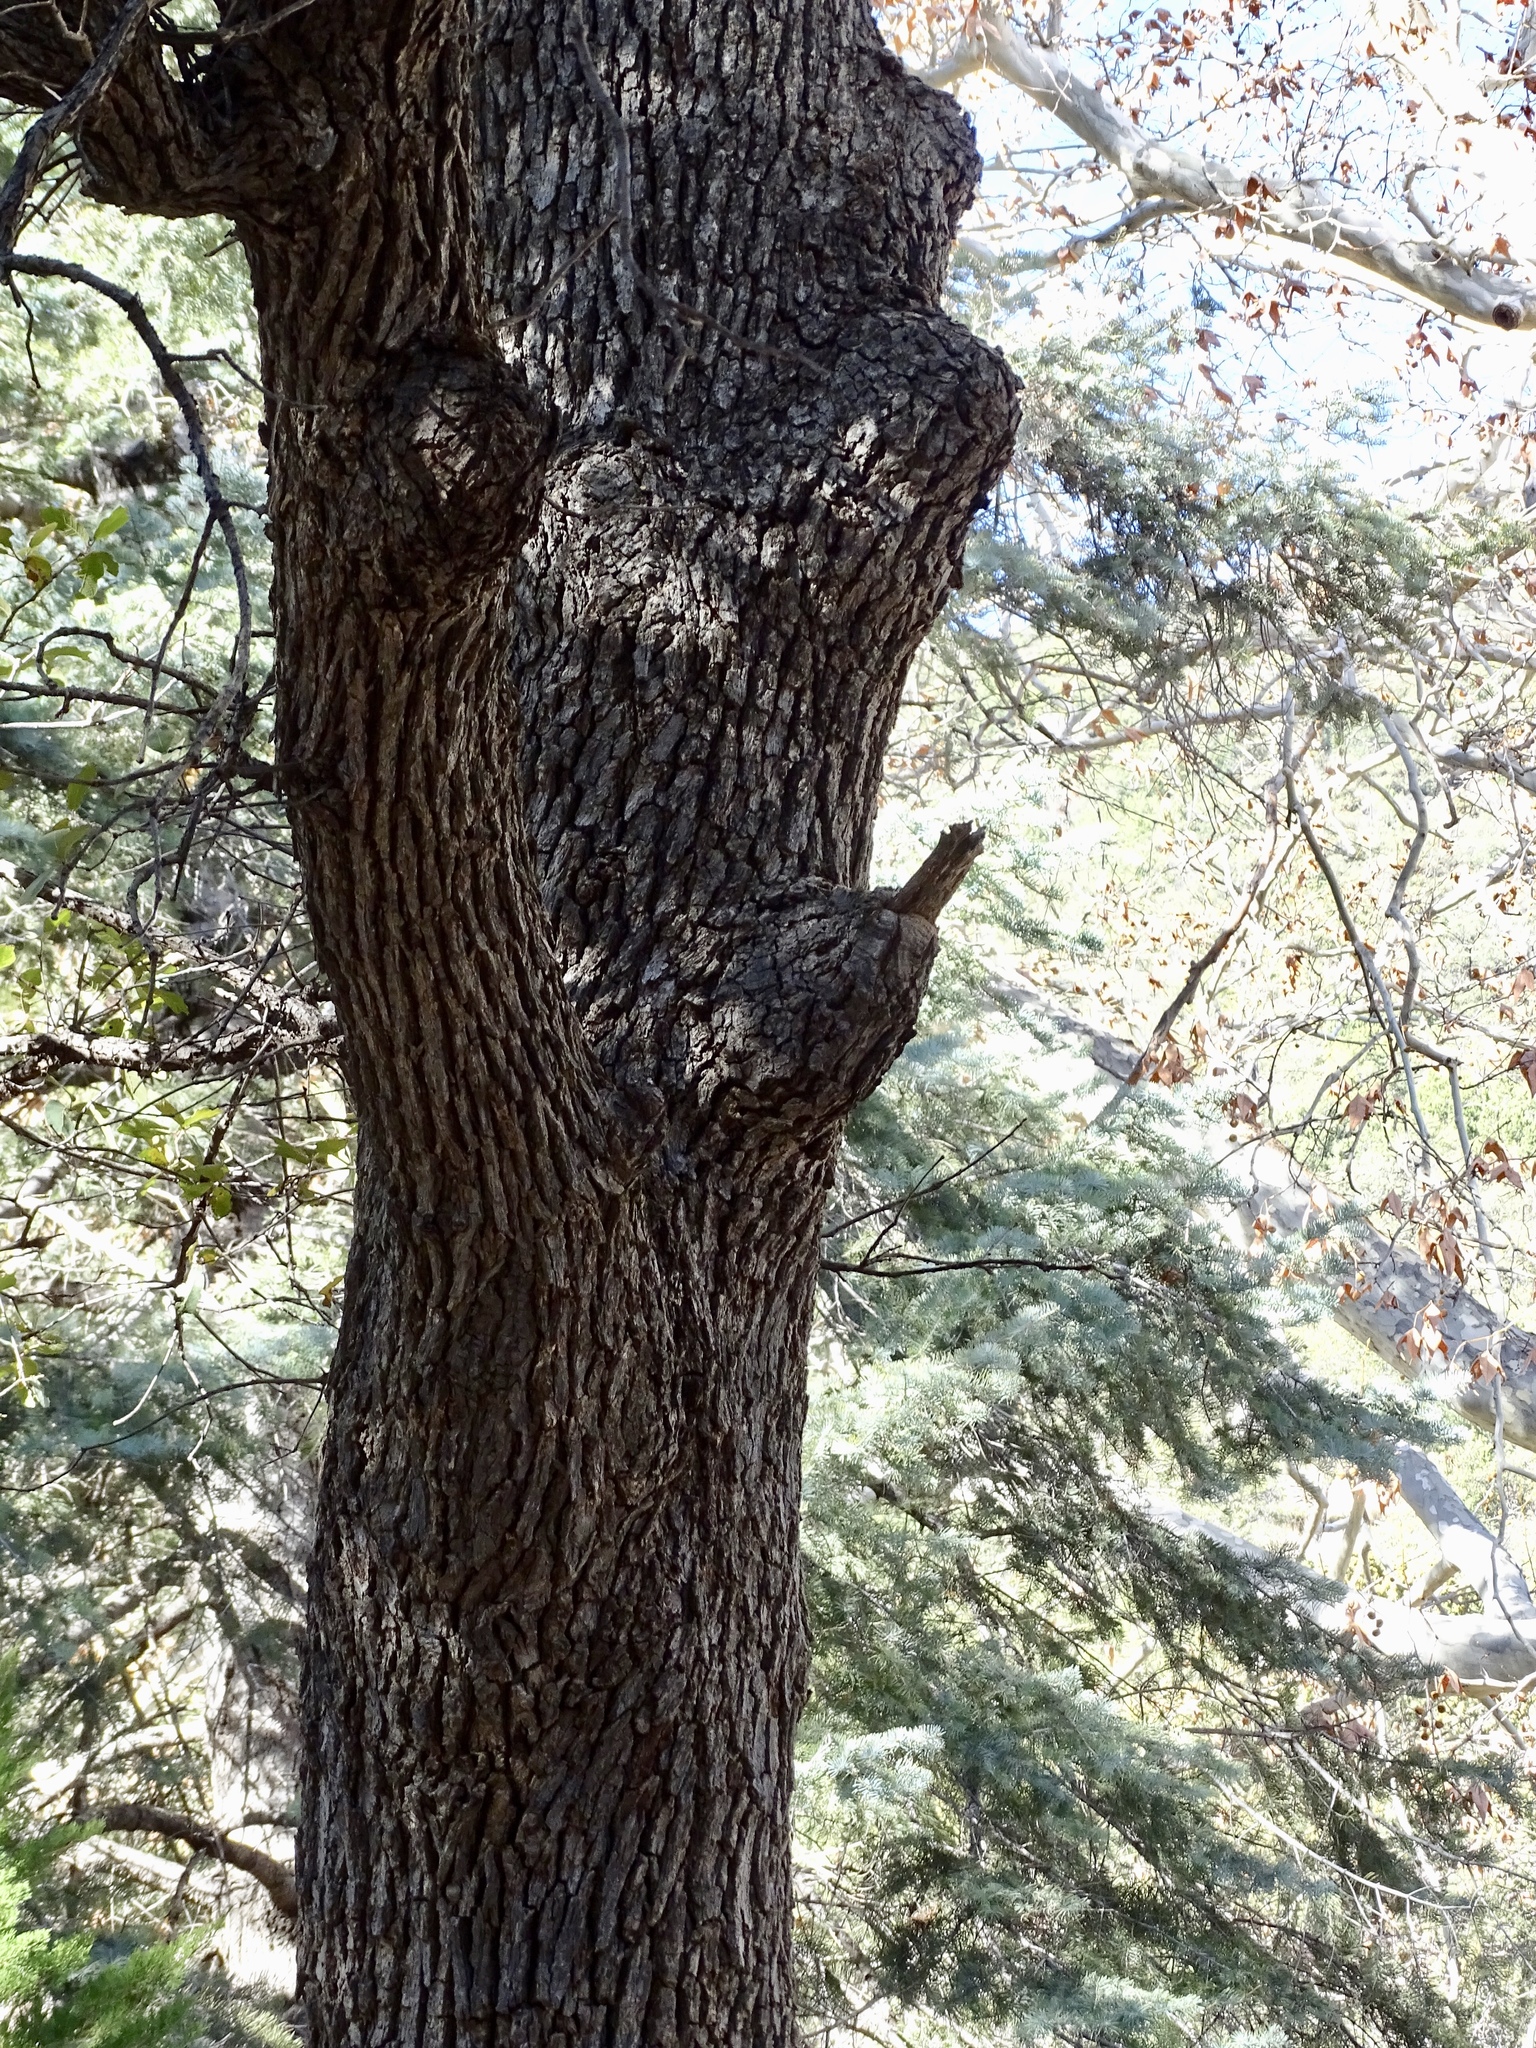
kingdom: Plantae
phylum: Tracheophyta
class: Magnoliopsida
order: Fagales
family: Fagaceae
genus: Quercus
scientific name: Quercus arizonica
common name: Arizona white oak
